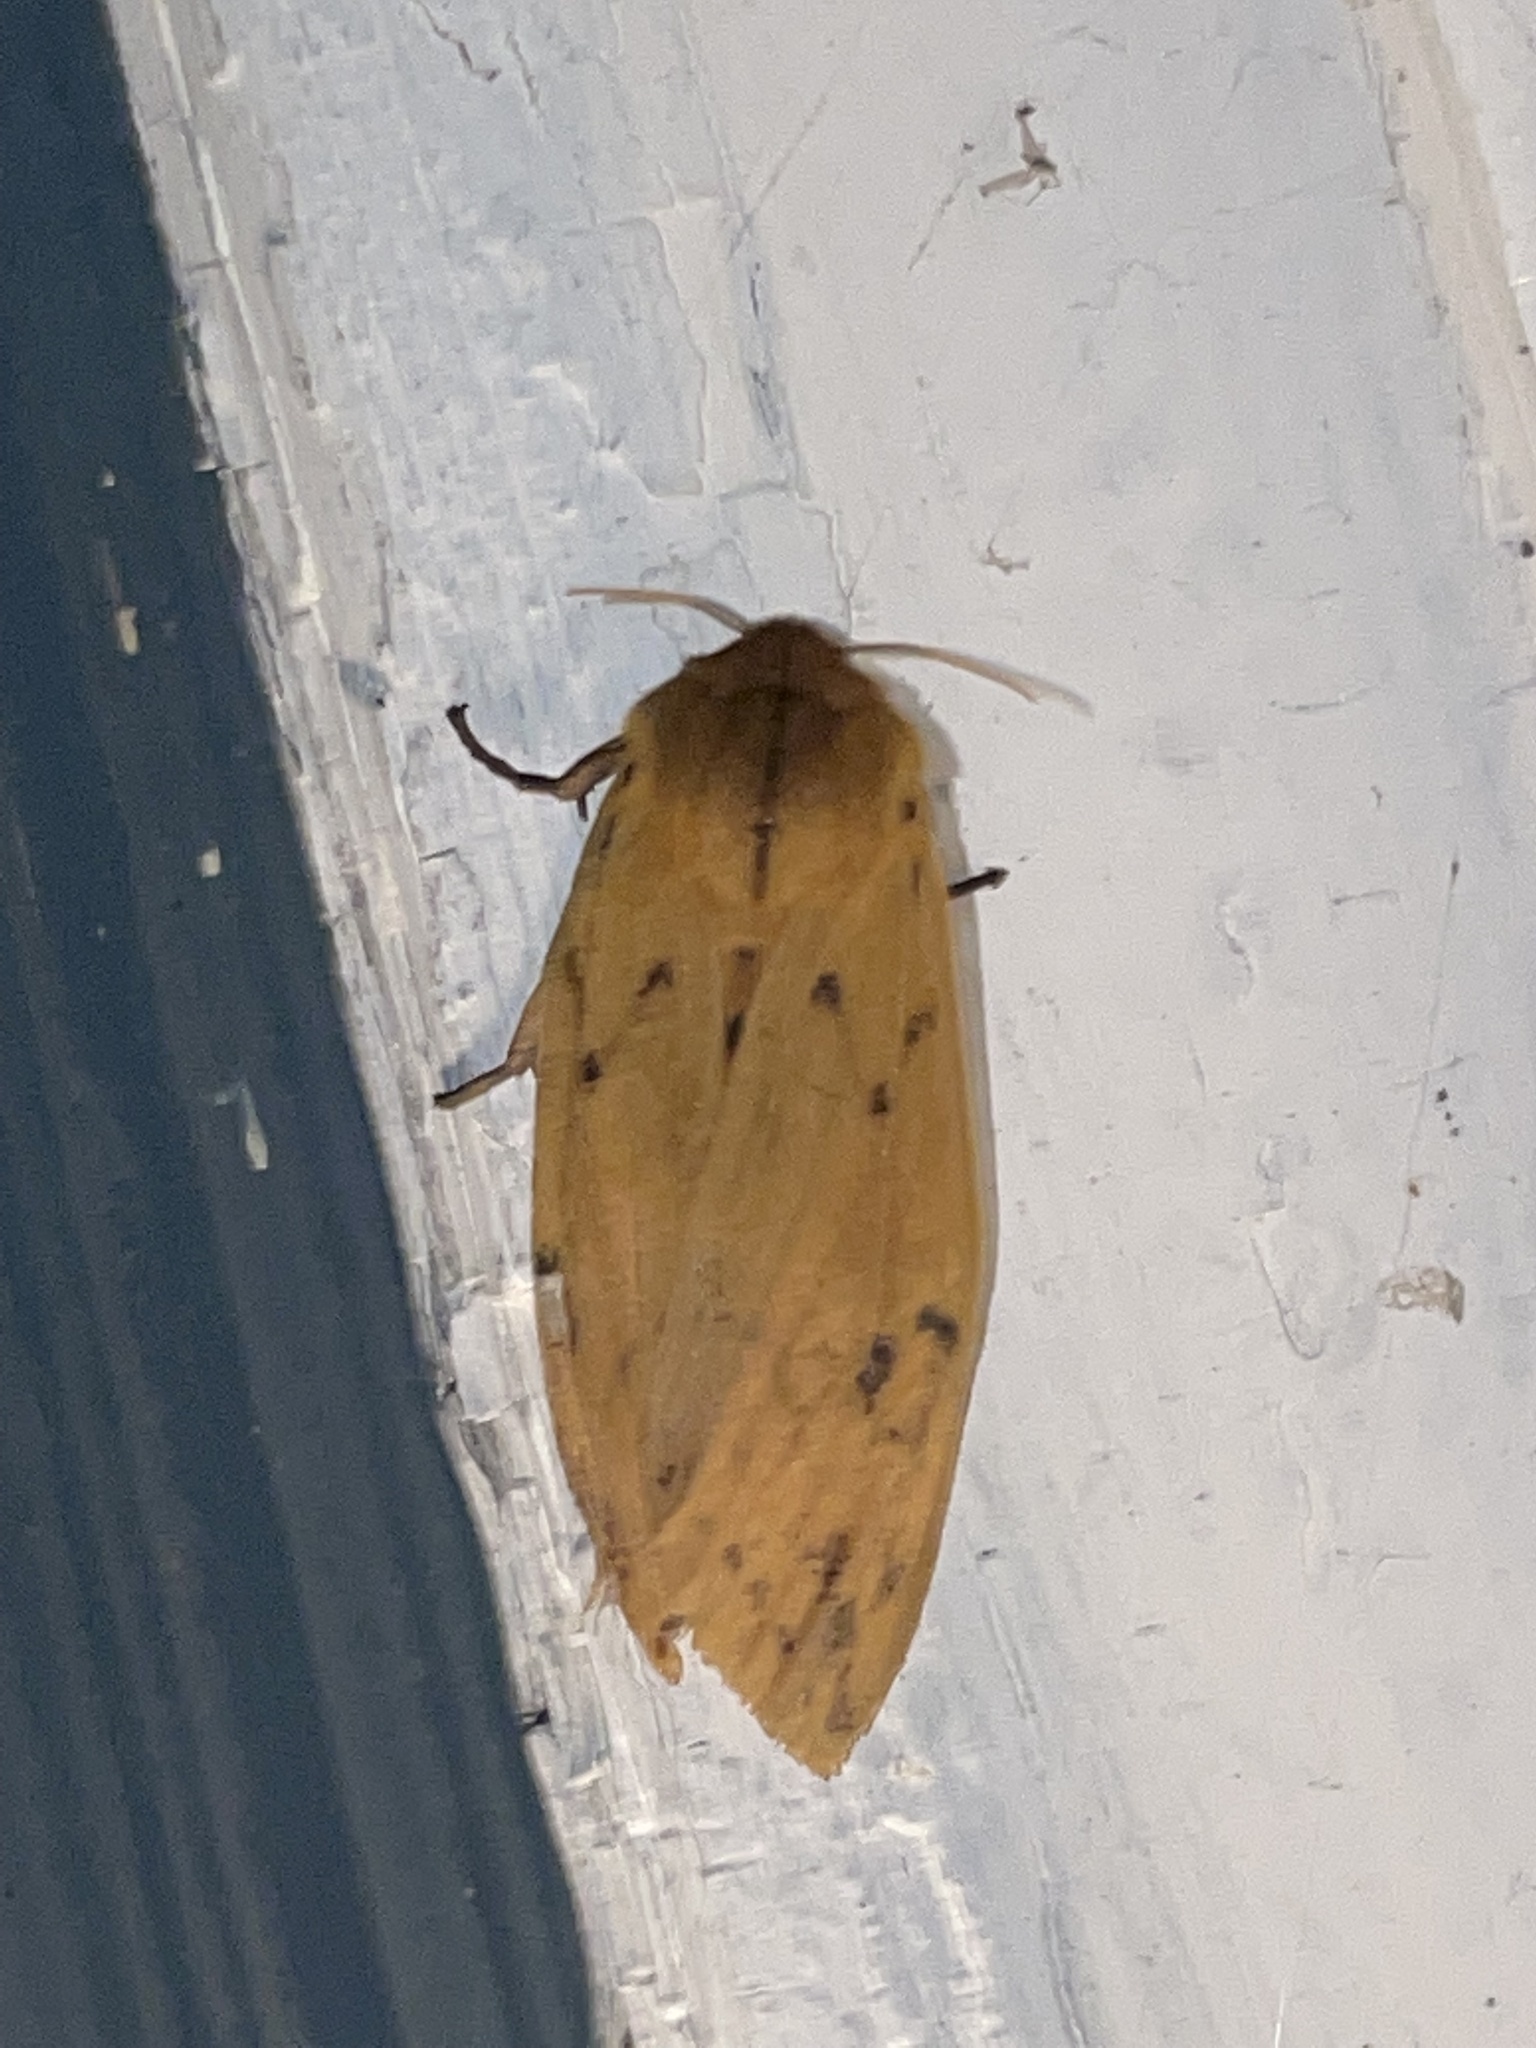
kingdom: Animalia
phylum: Arthropoda
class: Insecta
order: Lepidoptera
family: Erebidae
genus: Pyrrharctia
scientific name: Pyrrharctia isabella
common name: Isabella tiger moth
